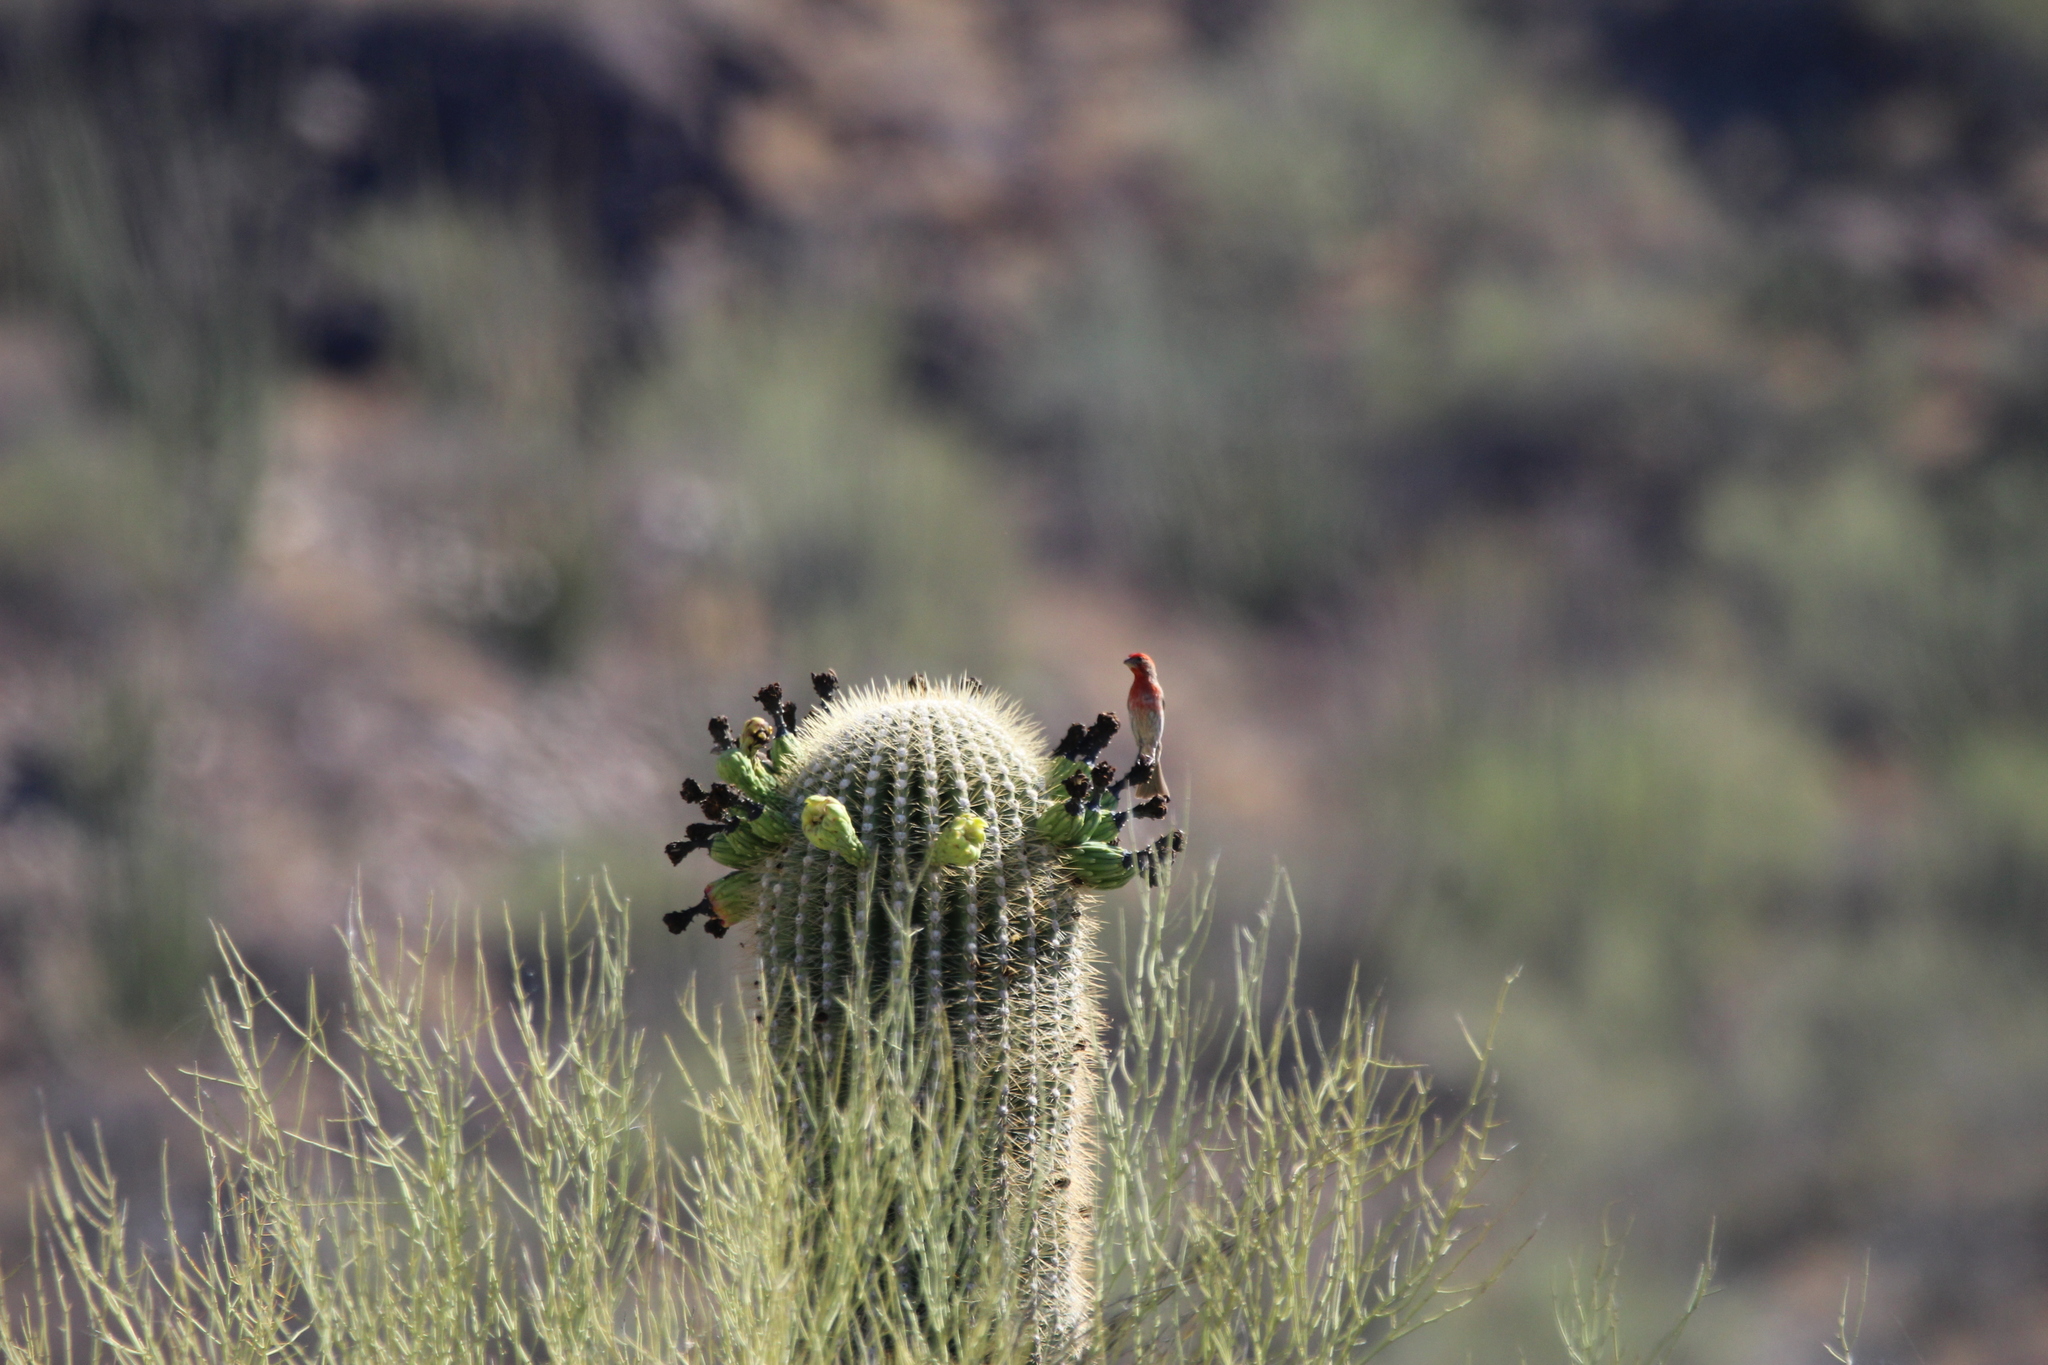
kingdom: Animalia
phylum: Chordata
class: Aves
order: Passeriformes
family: Fringillidae
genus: Haemorhous
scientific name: Haemorhous mexicanus
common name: House finch
